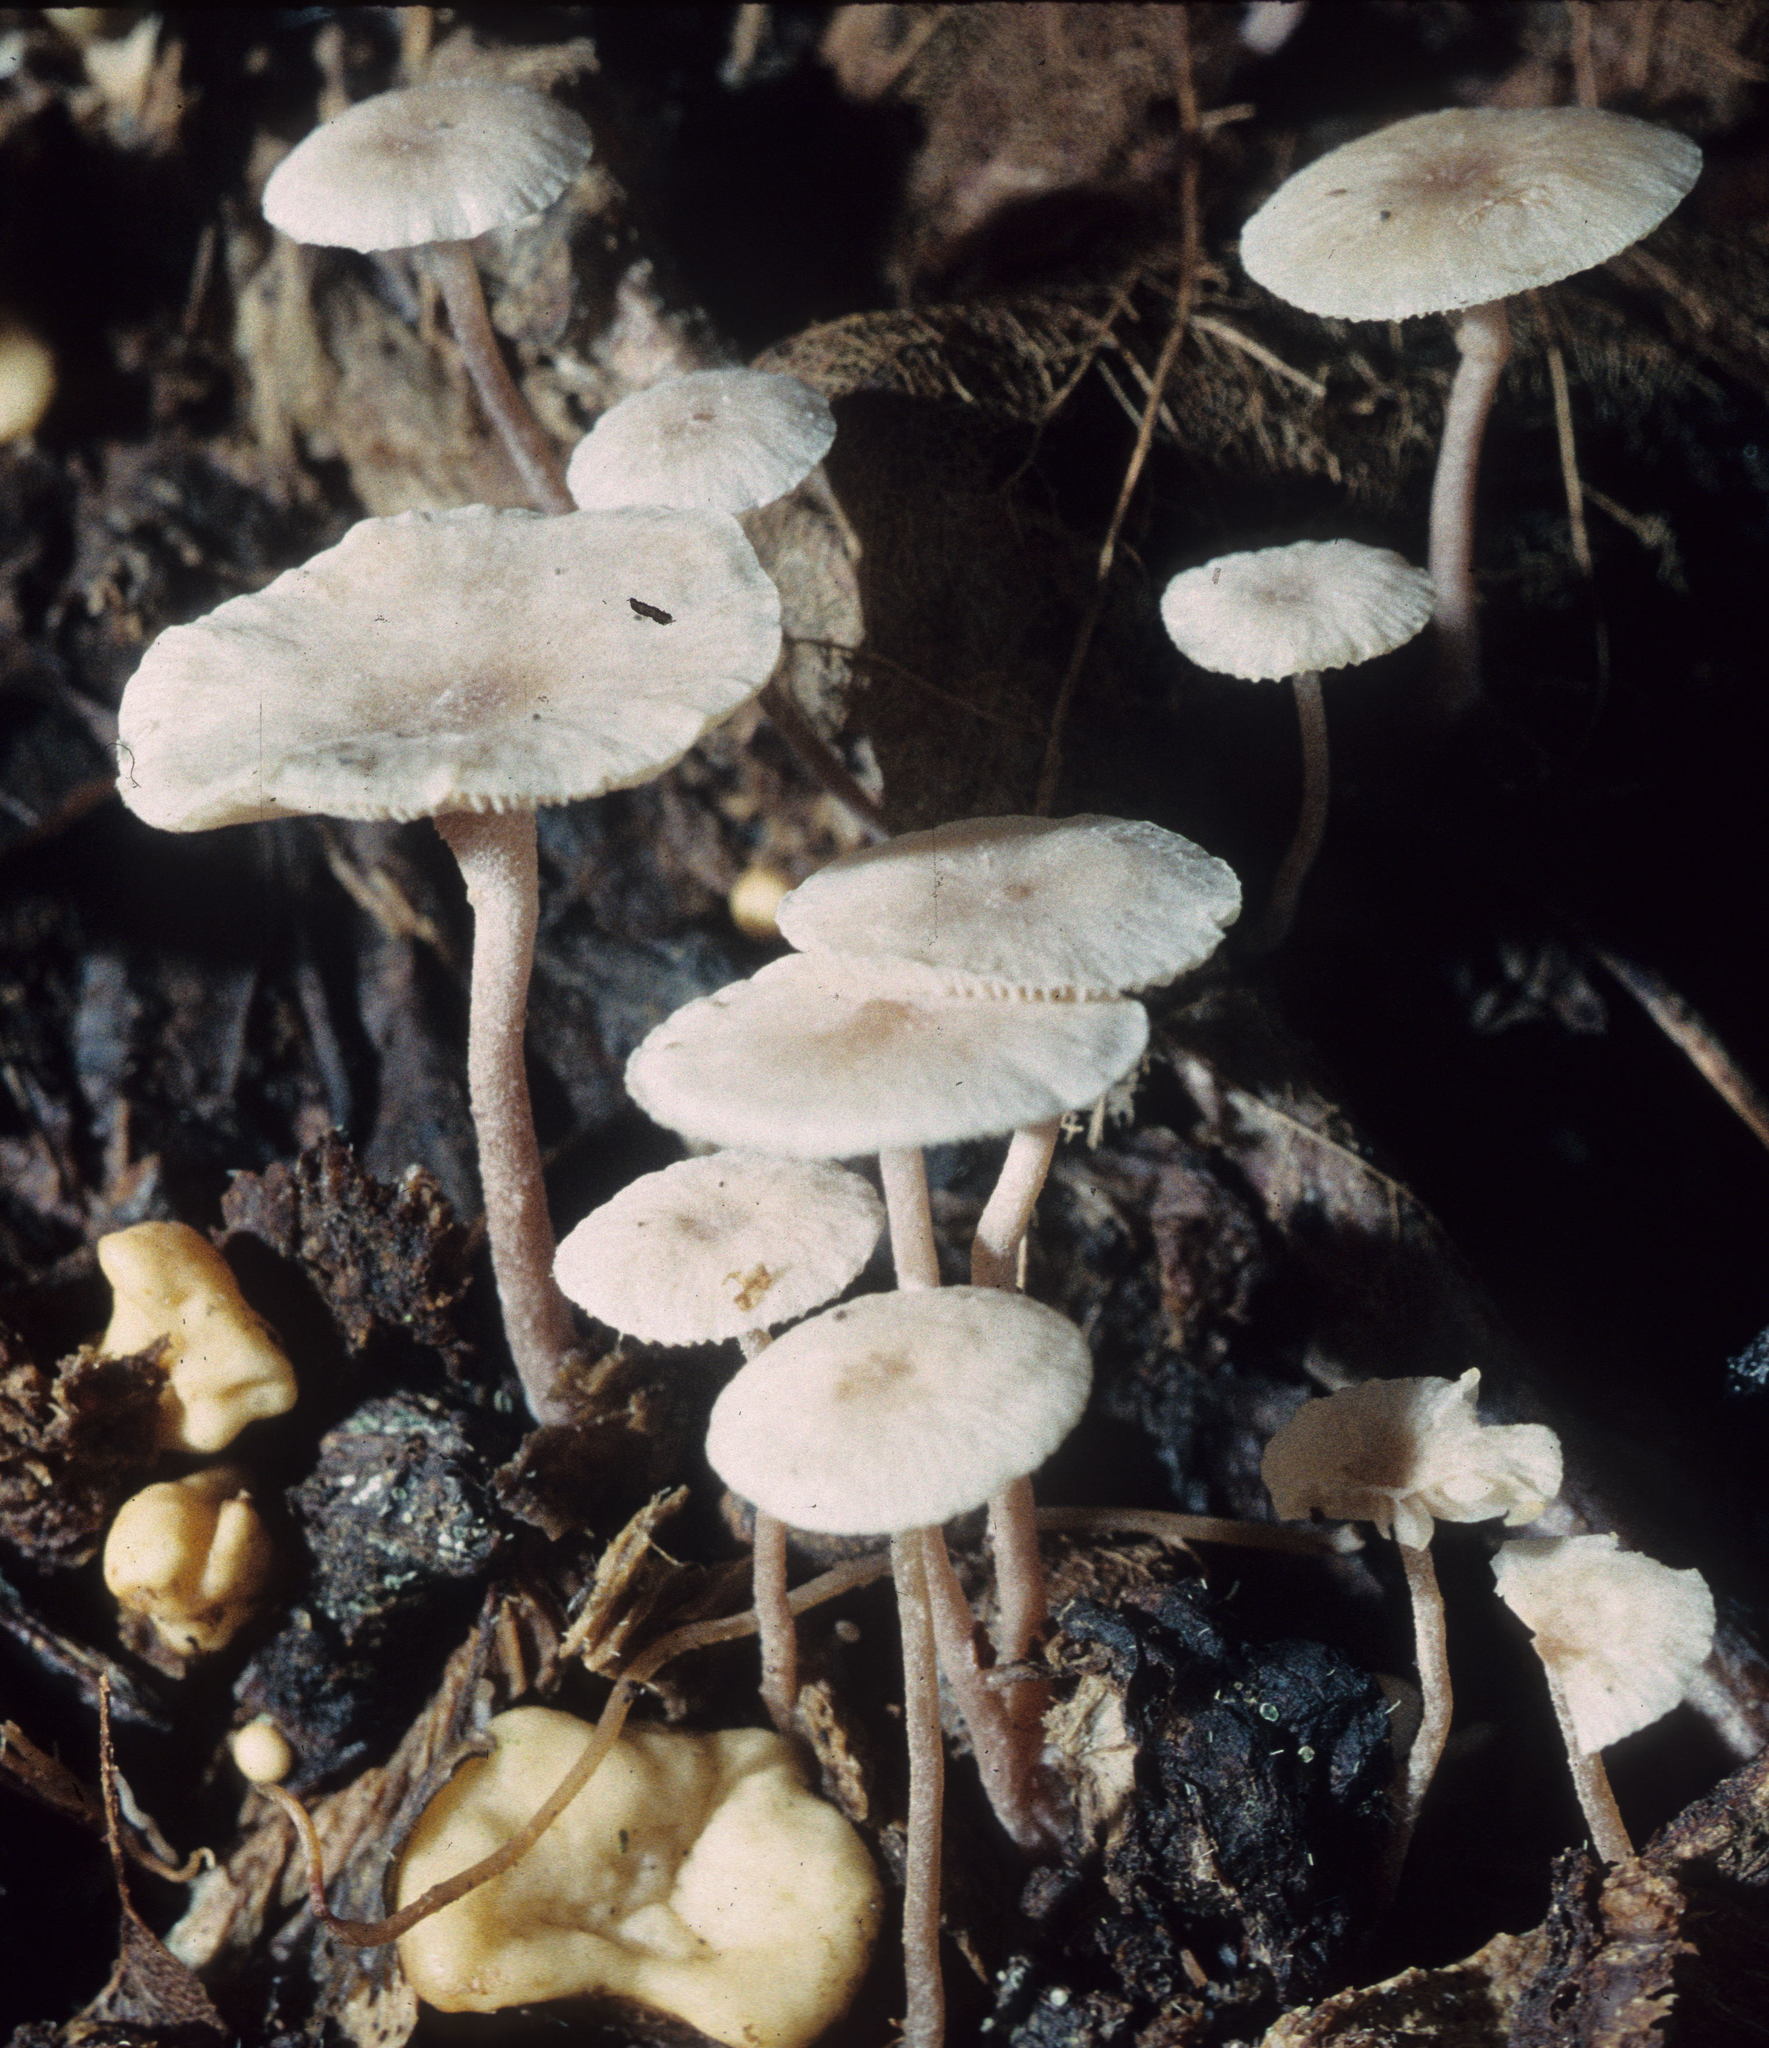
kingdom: Fungi
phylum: Basidiomycota
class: Agaricomycetes
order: Agaricales
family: Tricholomataceae
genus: Collybia
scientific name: Collybia cookei
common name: Splitpea shanklet
